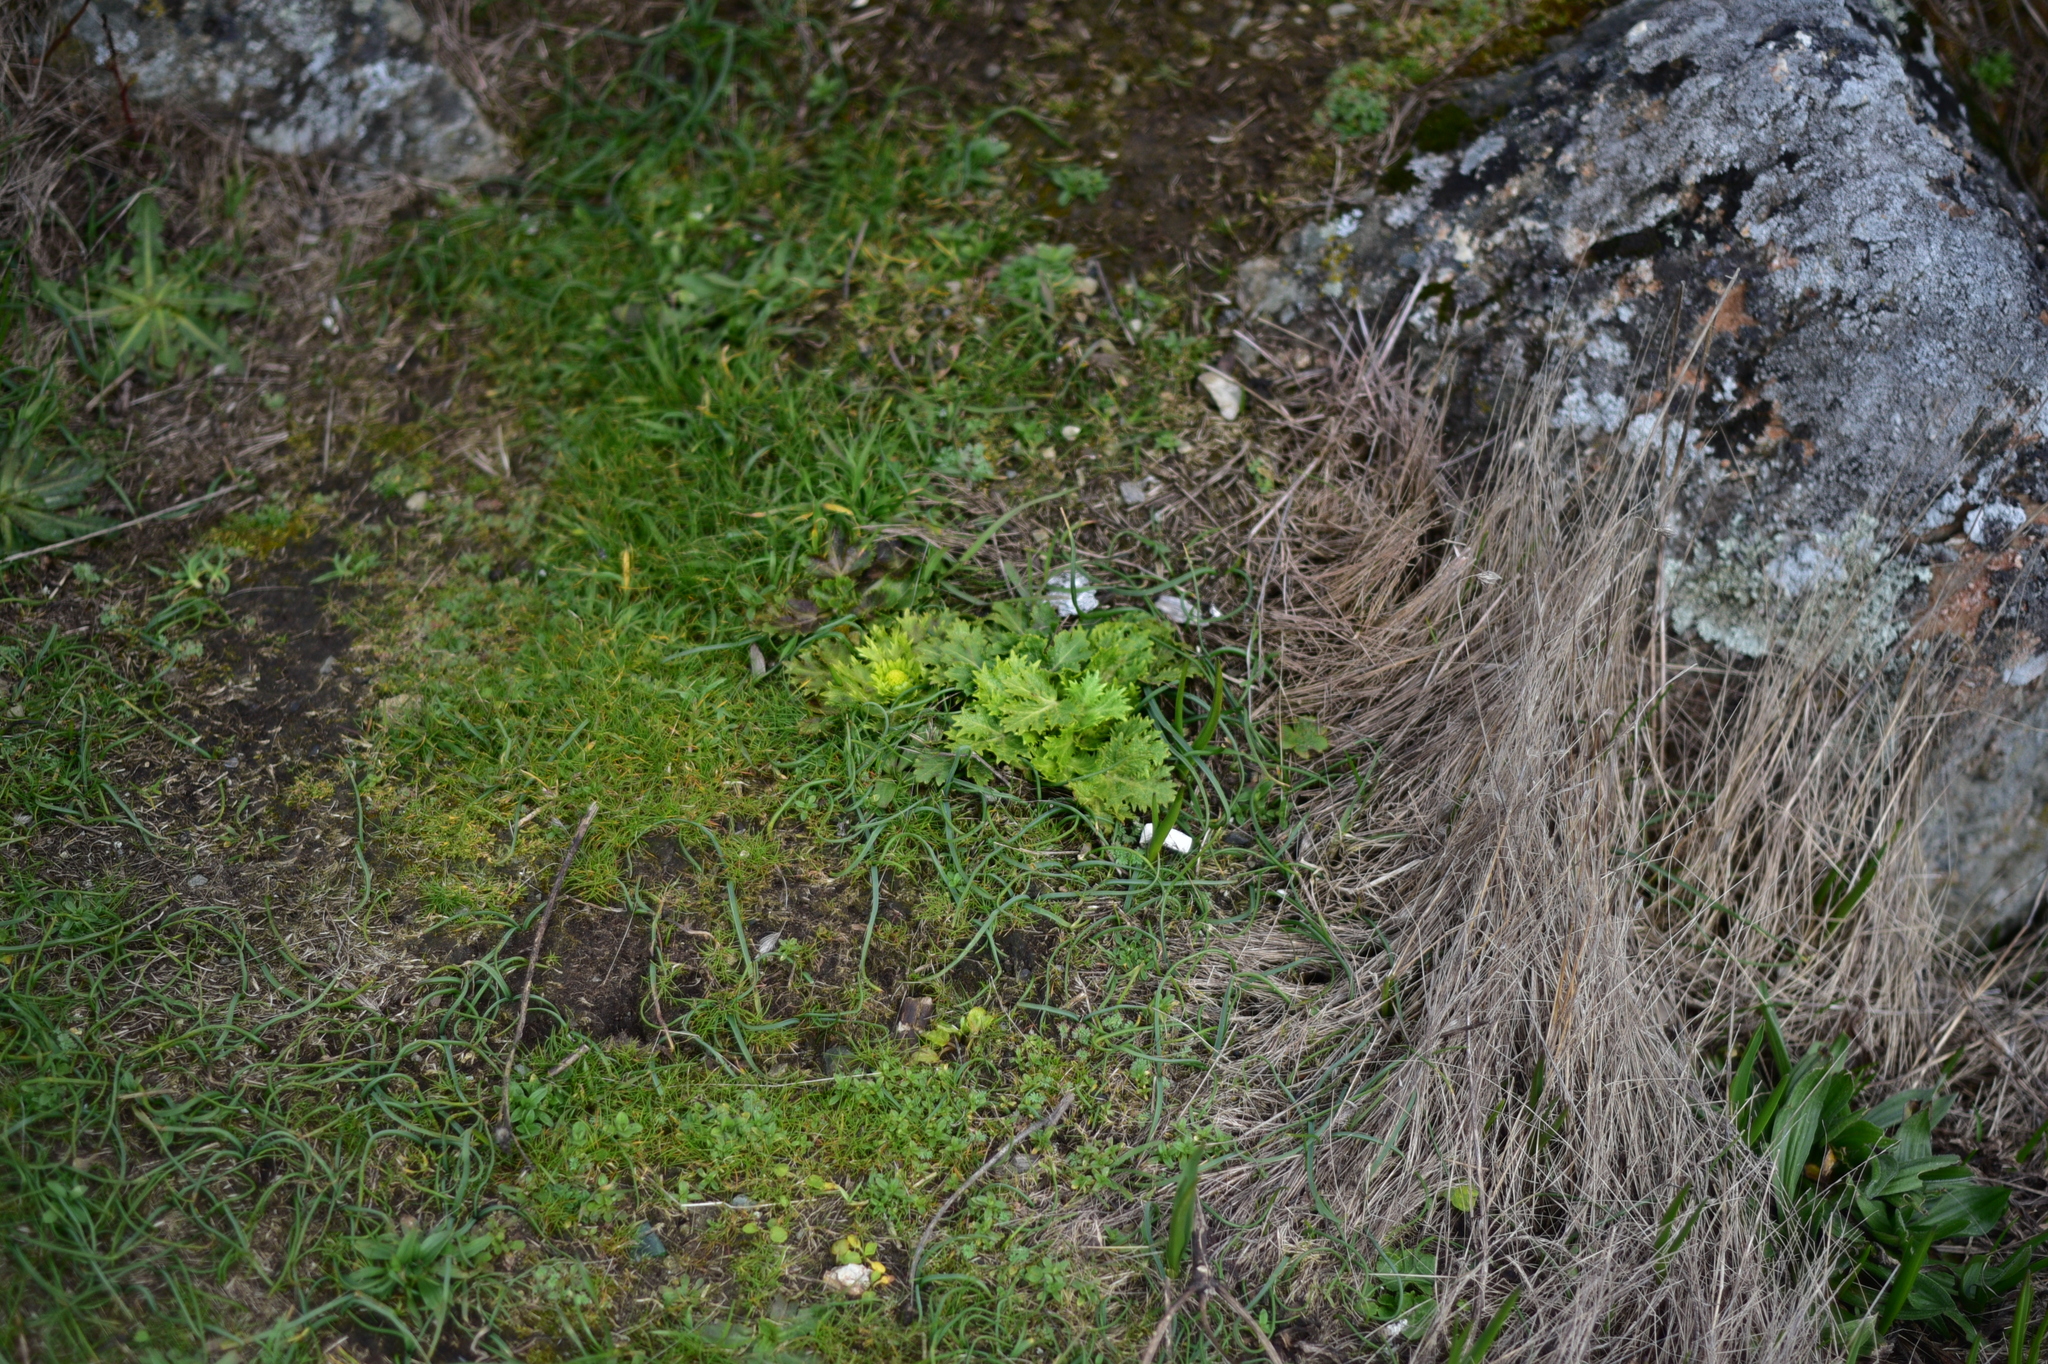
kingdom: Plantae
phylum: Tracheophyta
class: Magnoliopsida
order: Apiales
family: Apiaceae
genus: Sanicula
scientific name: Sanicula arctopoides
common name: Footsteps-of-spring
